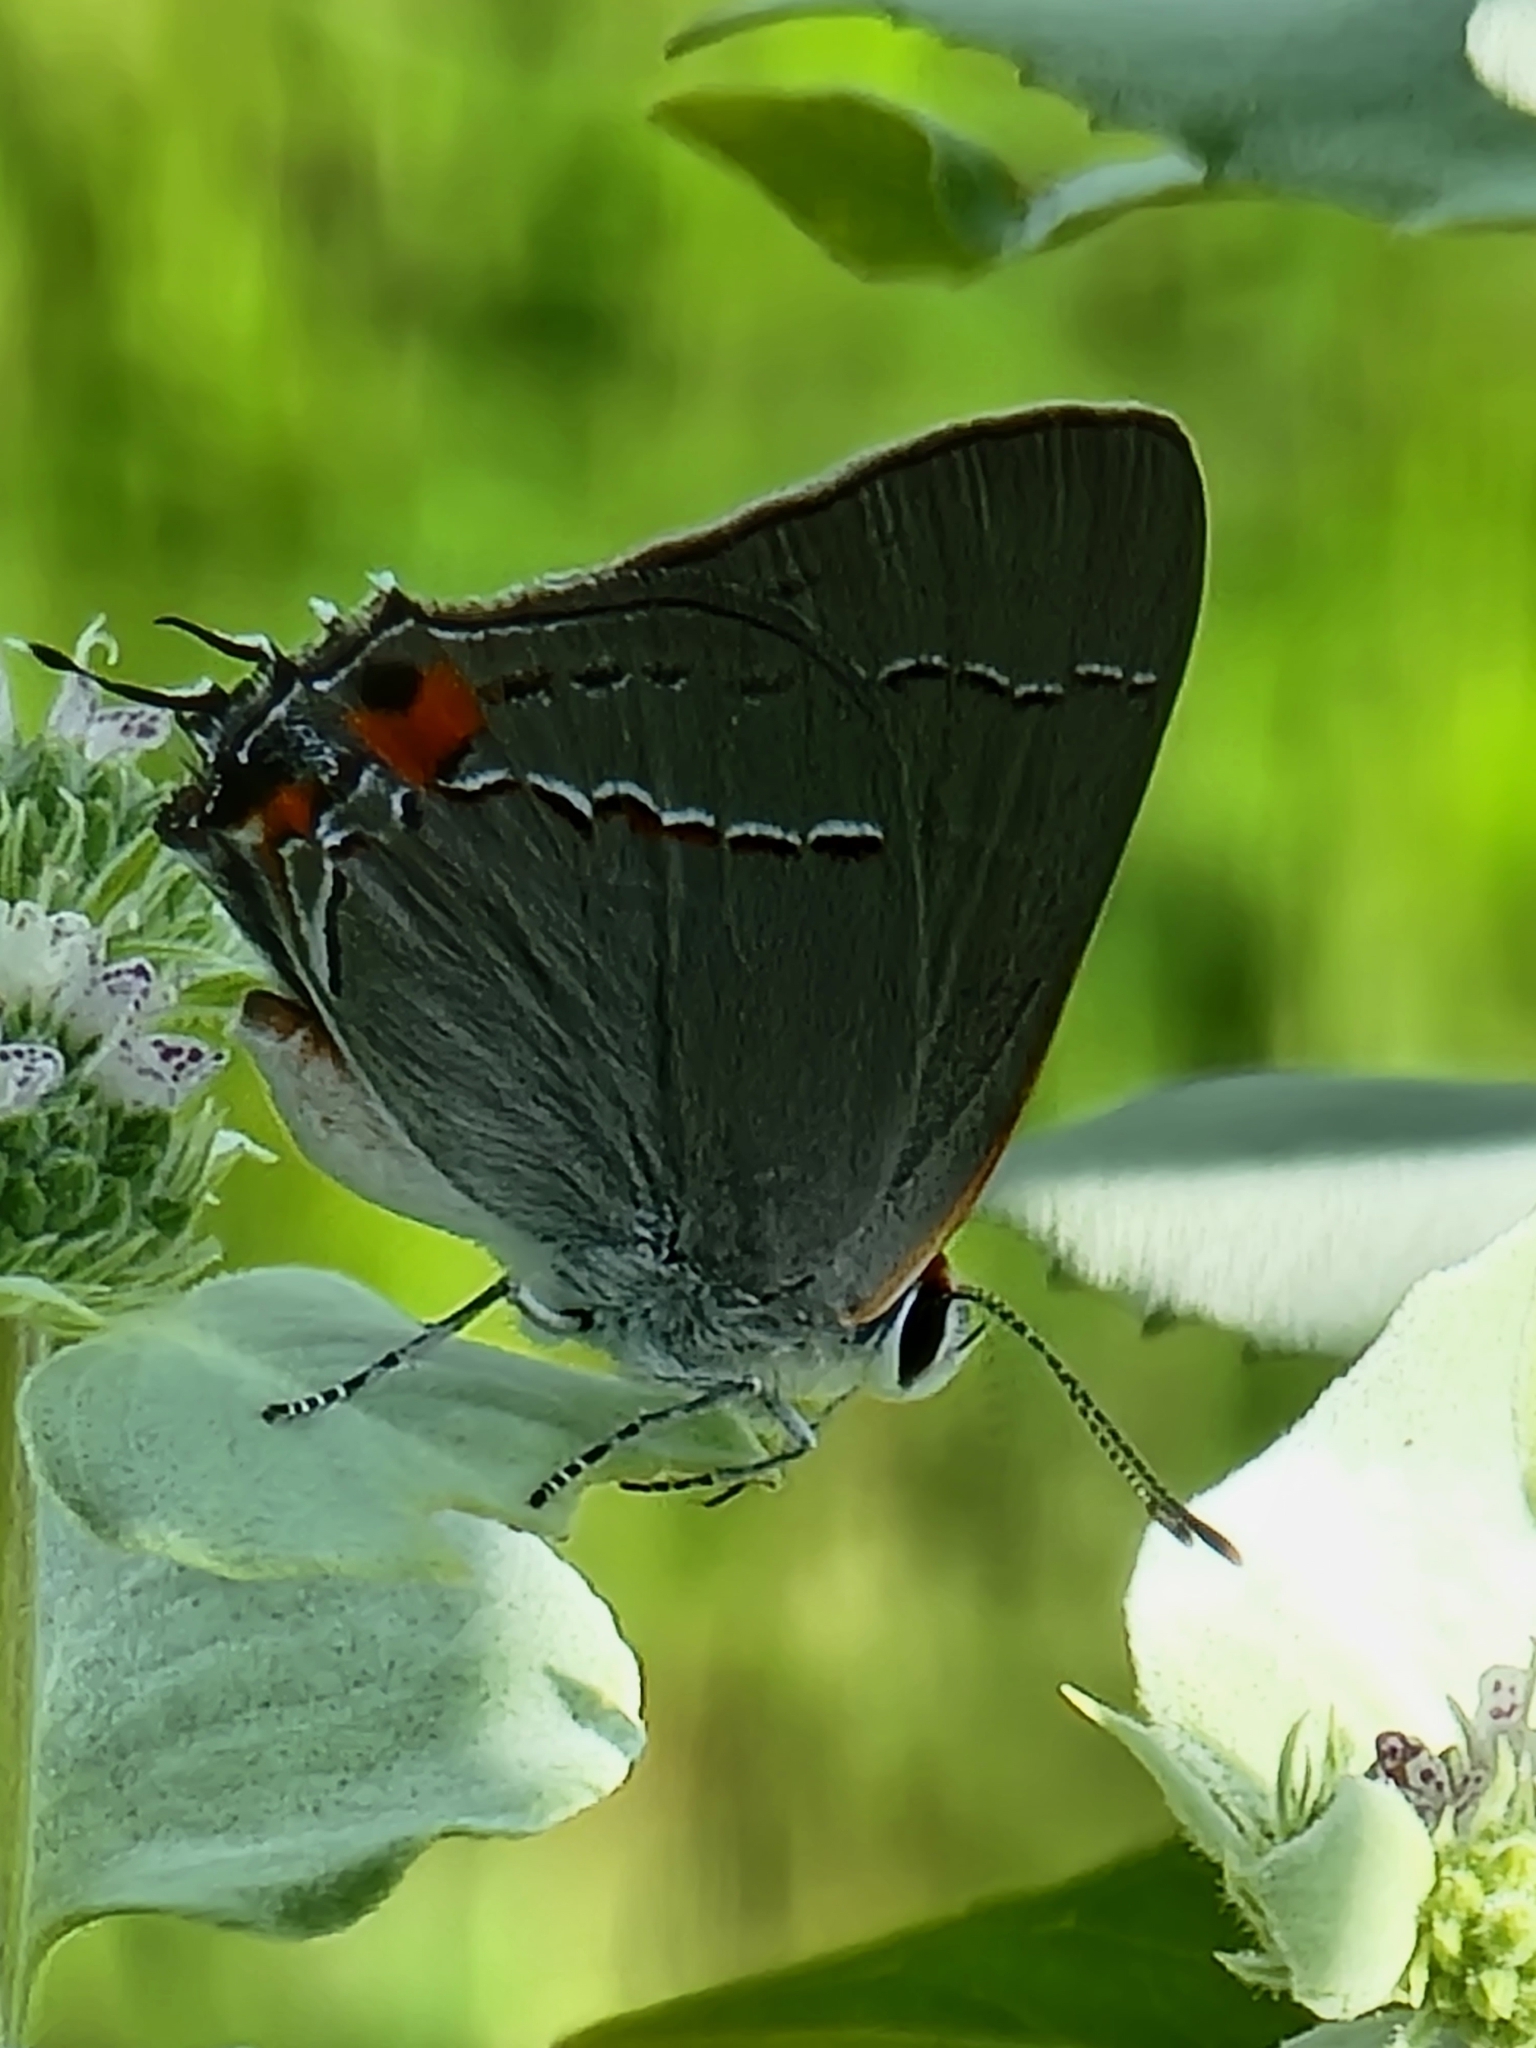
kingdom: Animalia
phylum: Arthropoda
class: Insecta
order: Lepidoptera
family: Lycaenidae
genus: Strymon
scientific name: Strymon melinus
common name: Gray hairstreak
